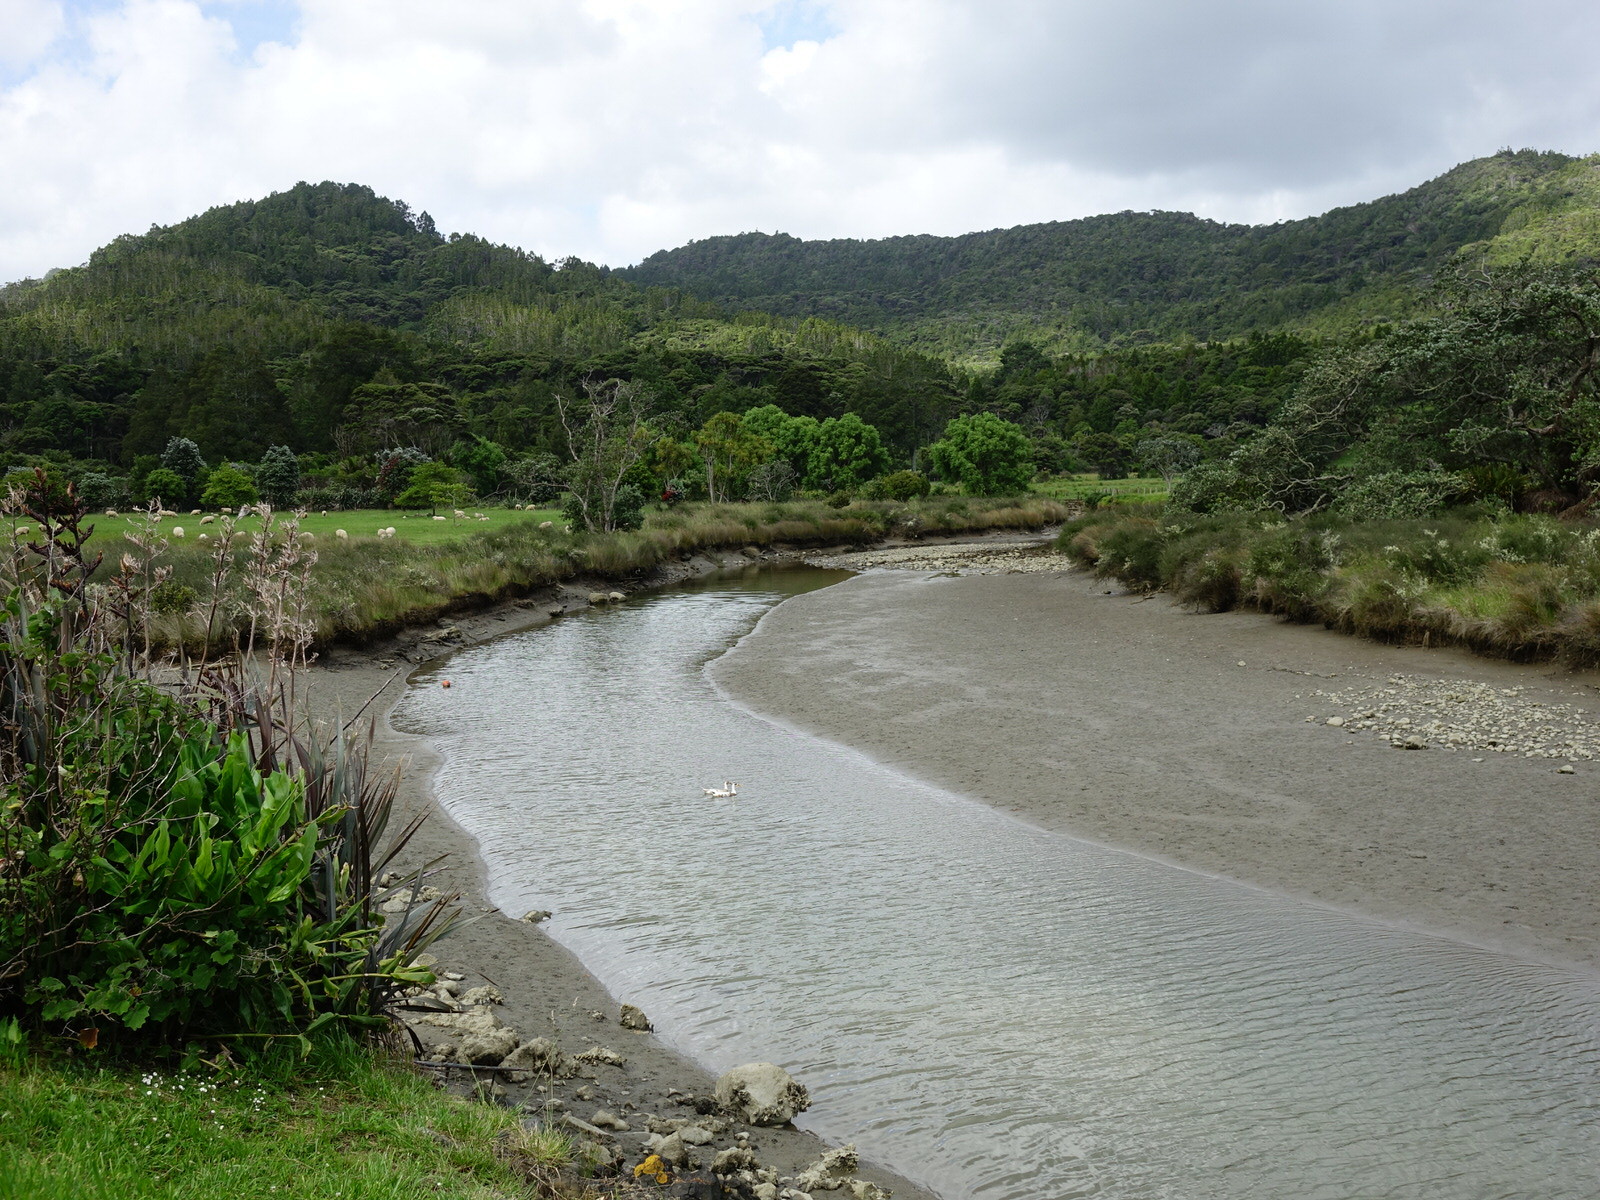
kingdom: Animalia
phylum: Chordata
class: Aves
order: Anseriformes
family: Anatidae
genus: Anas
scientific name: Anas platyrhynchos
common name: Mallard
